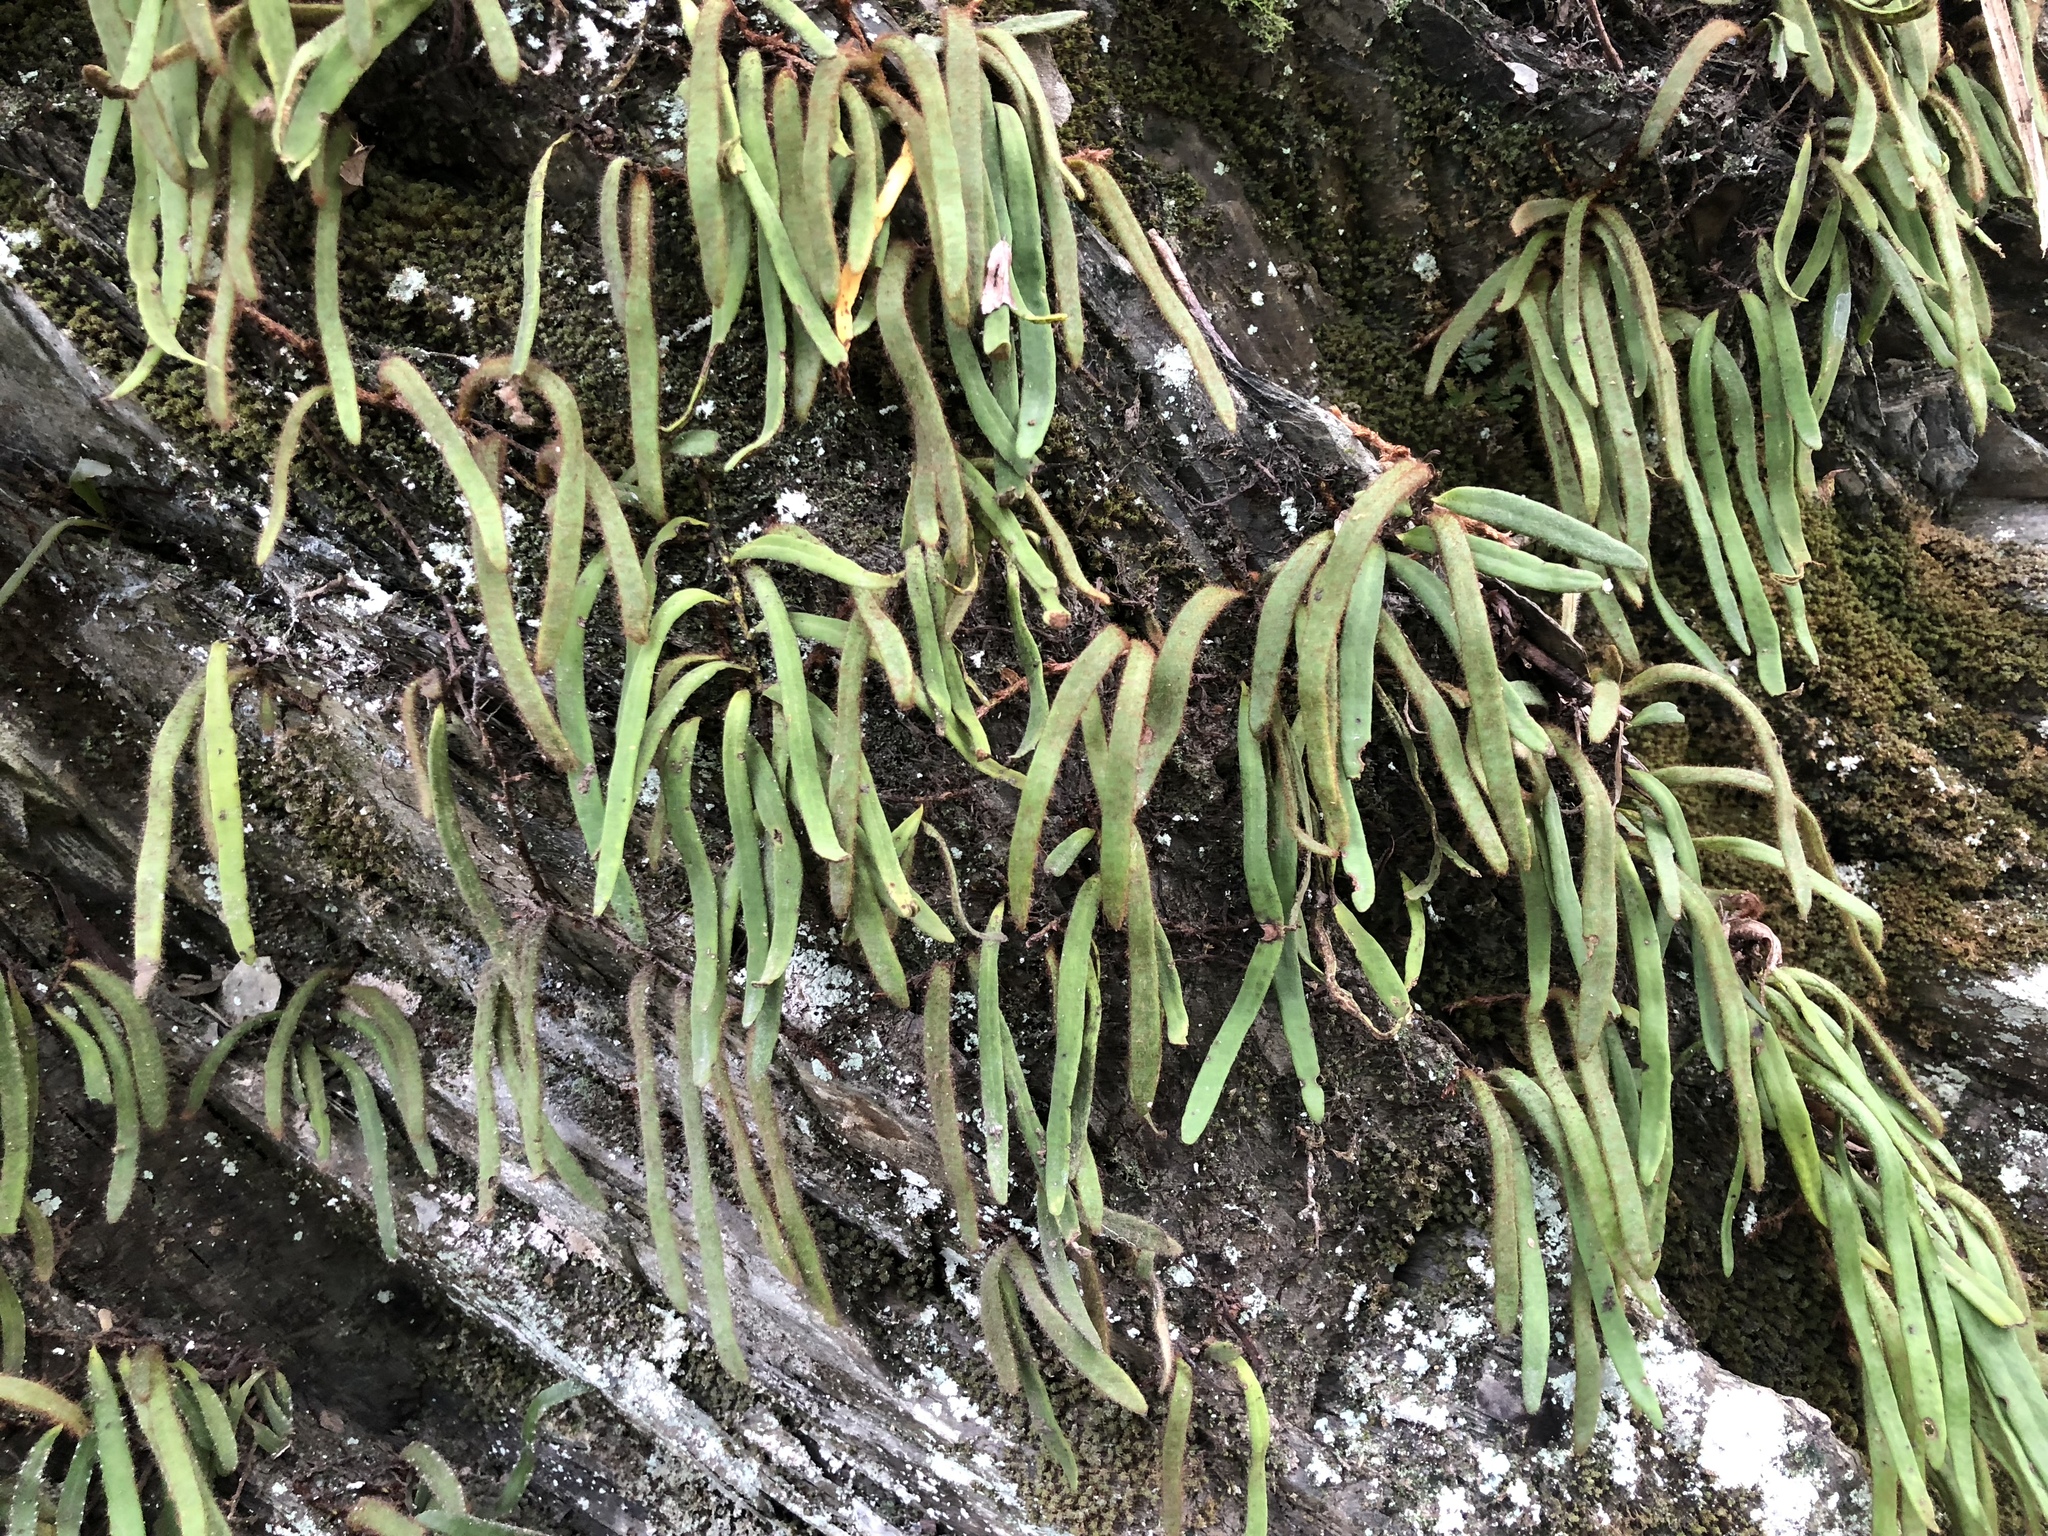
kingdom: Plantae
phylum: Tracheophyta
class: Polypodiopsida
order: Polypodiales
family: Polypodiaceae
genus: Pyrrosia
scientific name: Pyrrosia linearifolia
